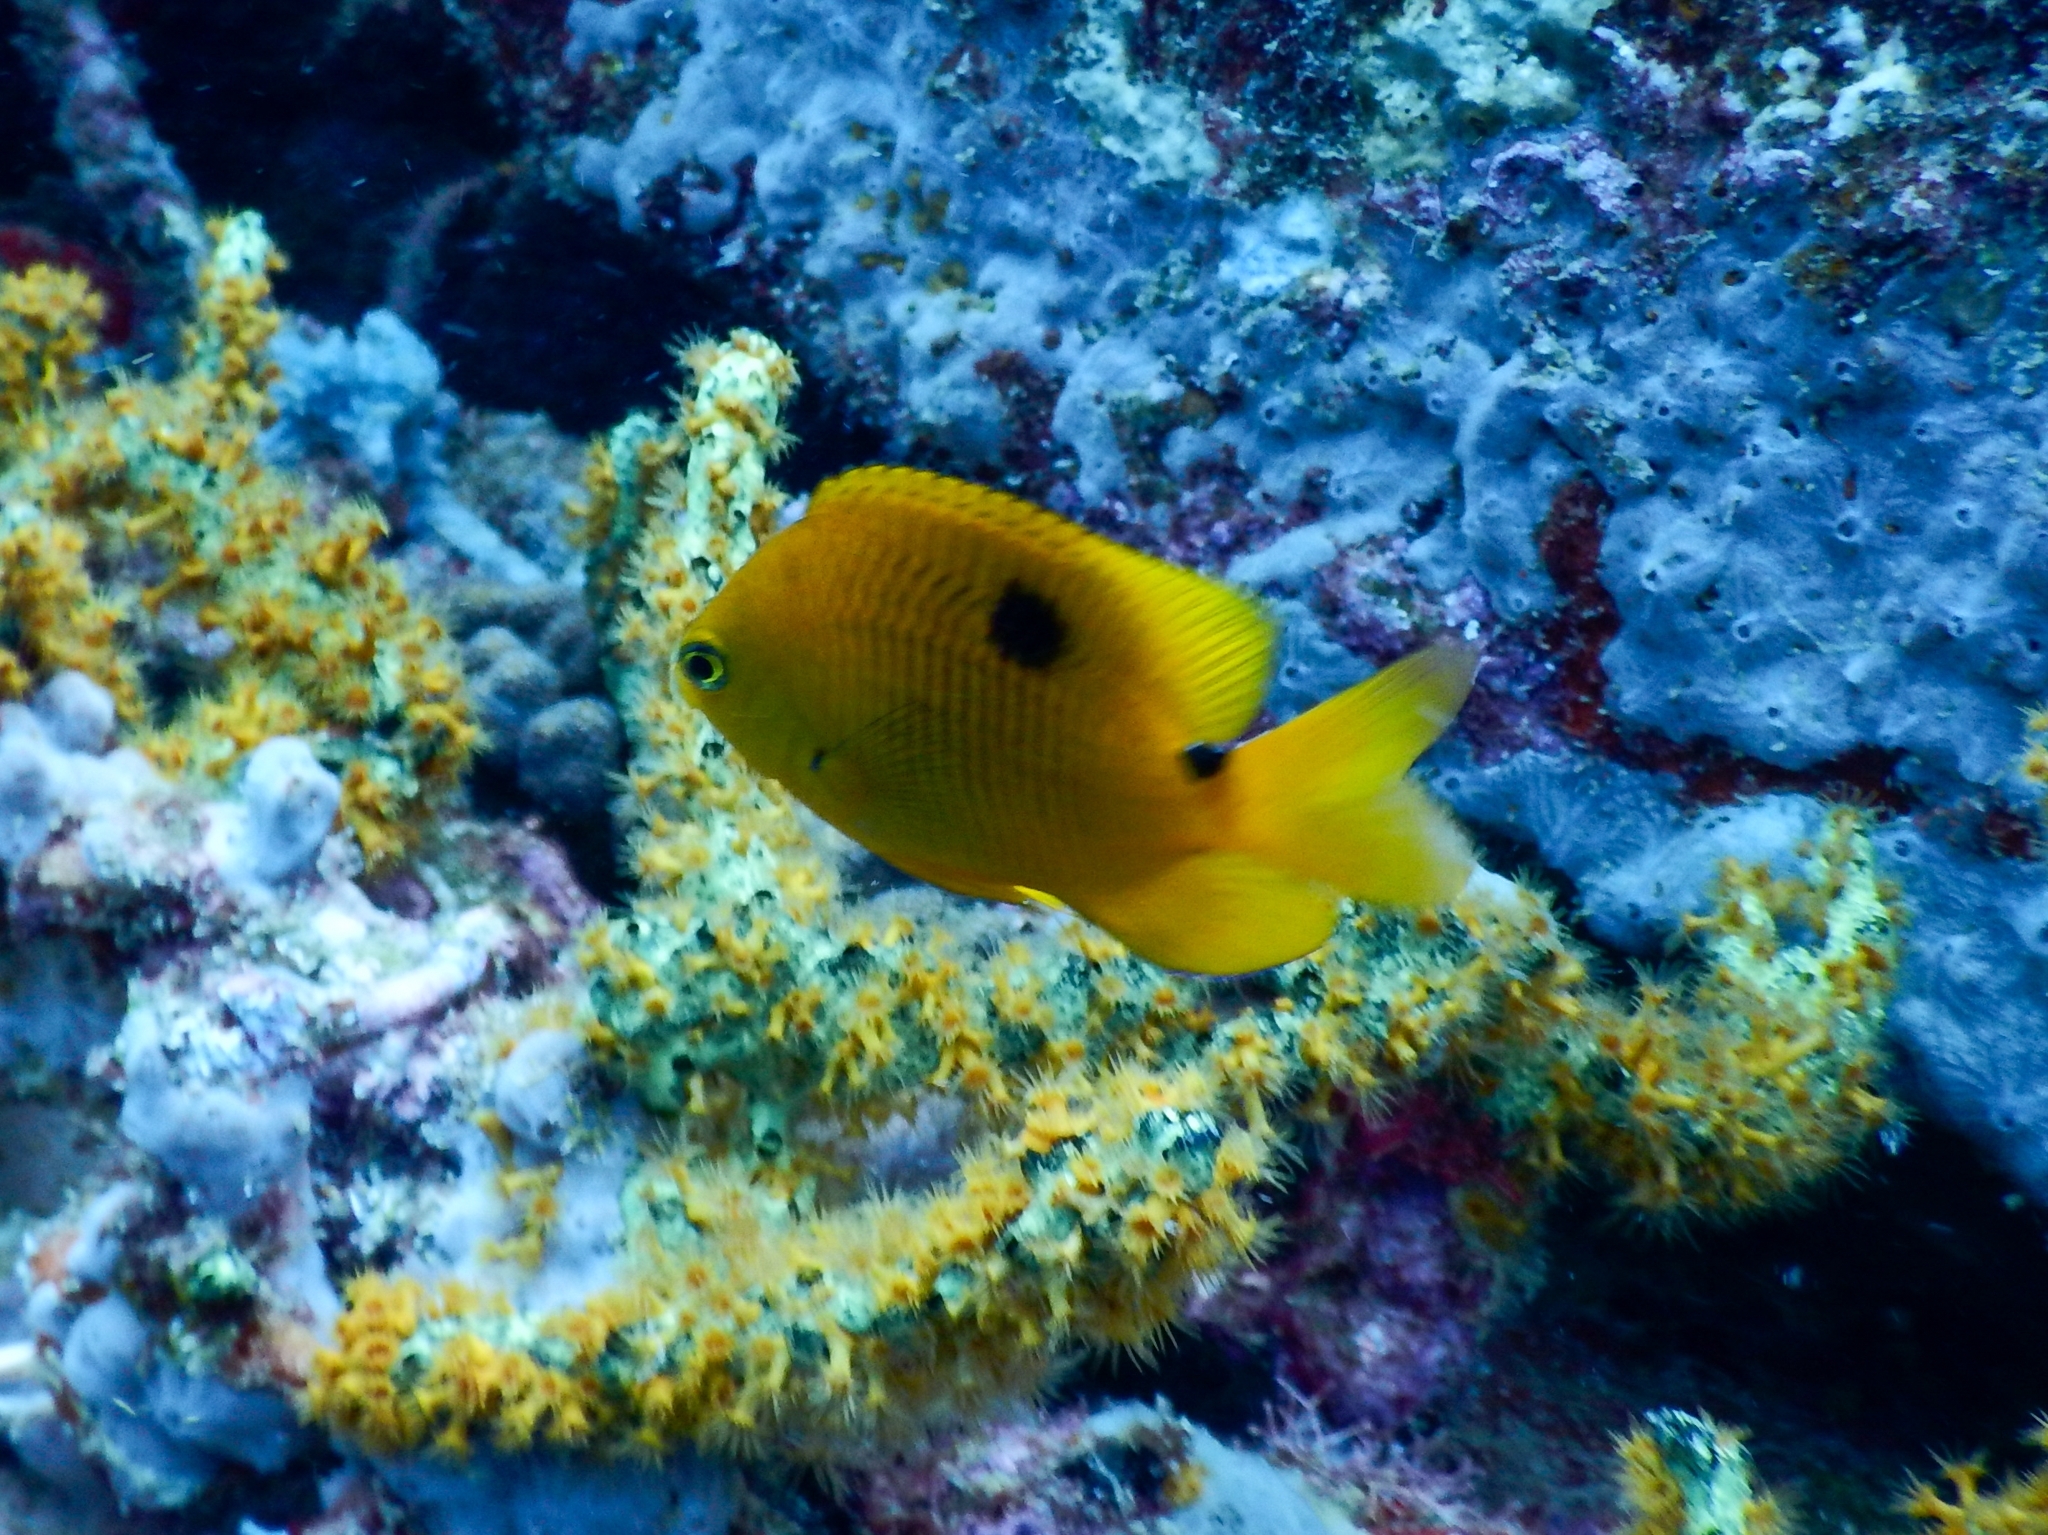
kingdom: Animalia
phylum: Chordata
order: Perciformes
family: Pomacentridae
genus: Stegastes
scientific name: Stegastes planifrons
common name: Threespot damselfish
